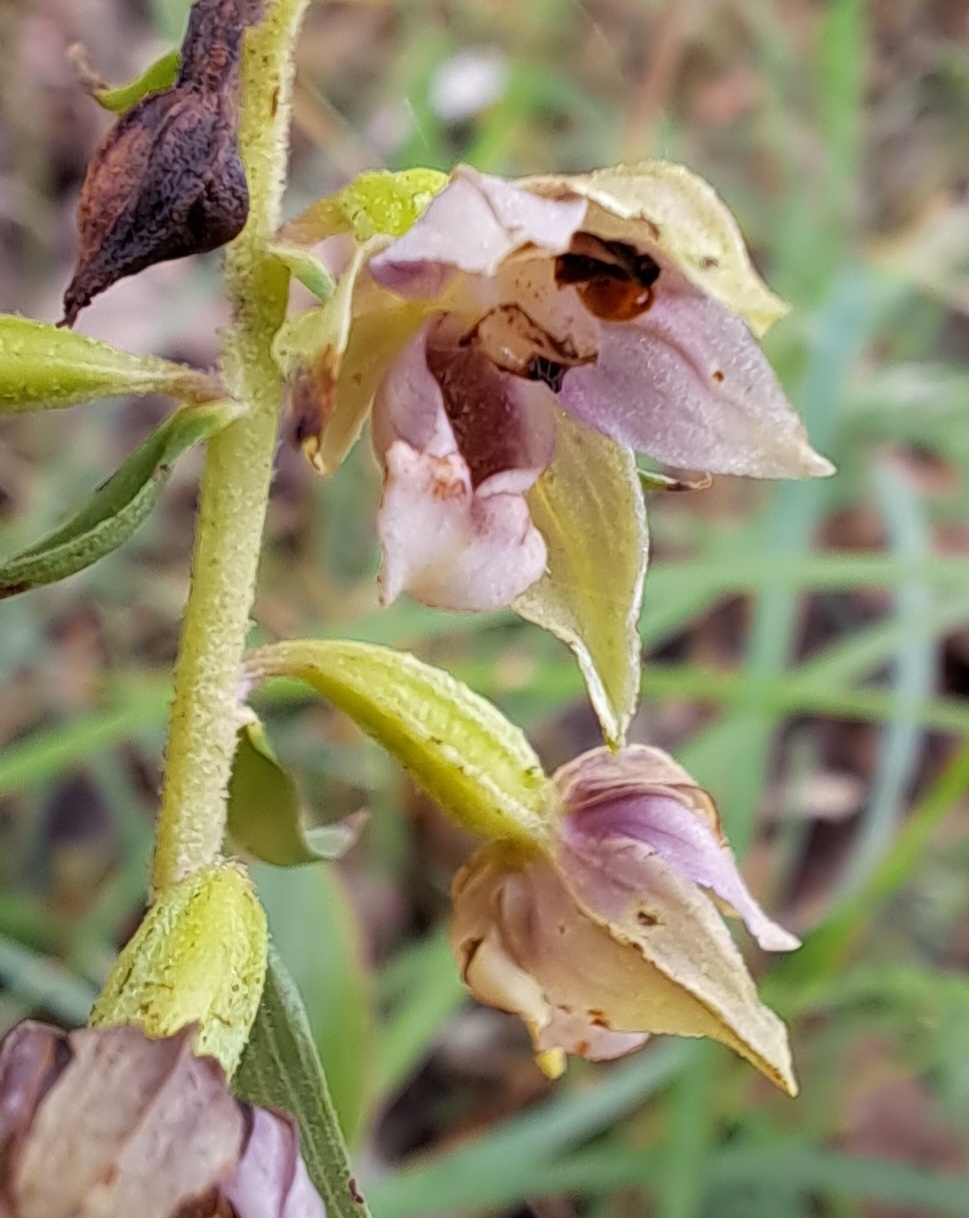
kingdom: Plantae
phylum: Tracheophyta
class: Liliopsida
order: Asparagales
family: Orchidaceae
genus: Epipactis
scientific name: Epipactis helleborine
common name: Broad-leaved helleborine
